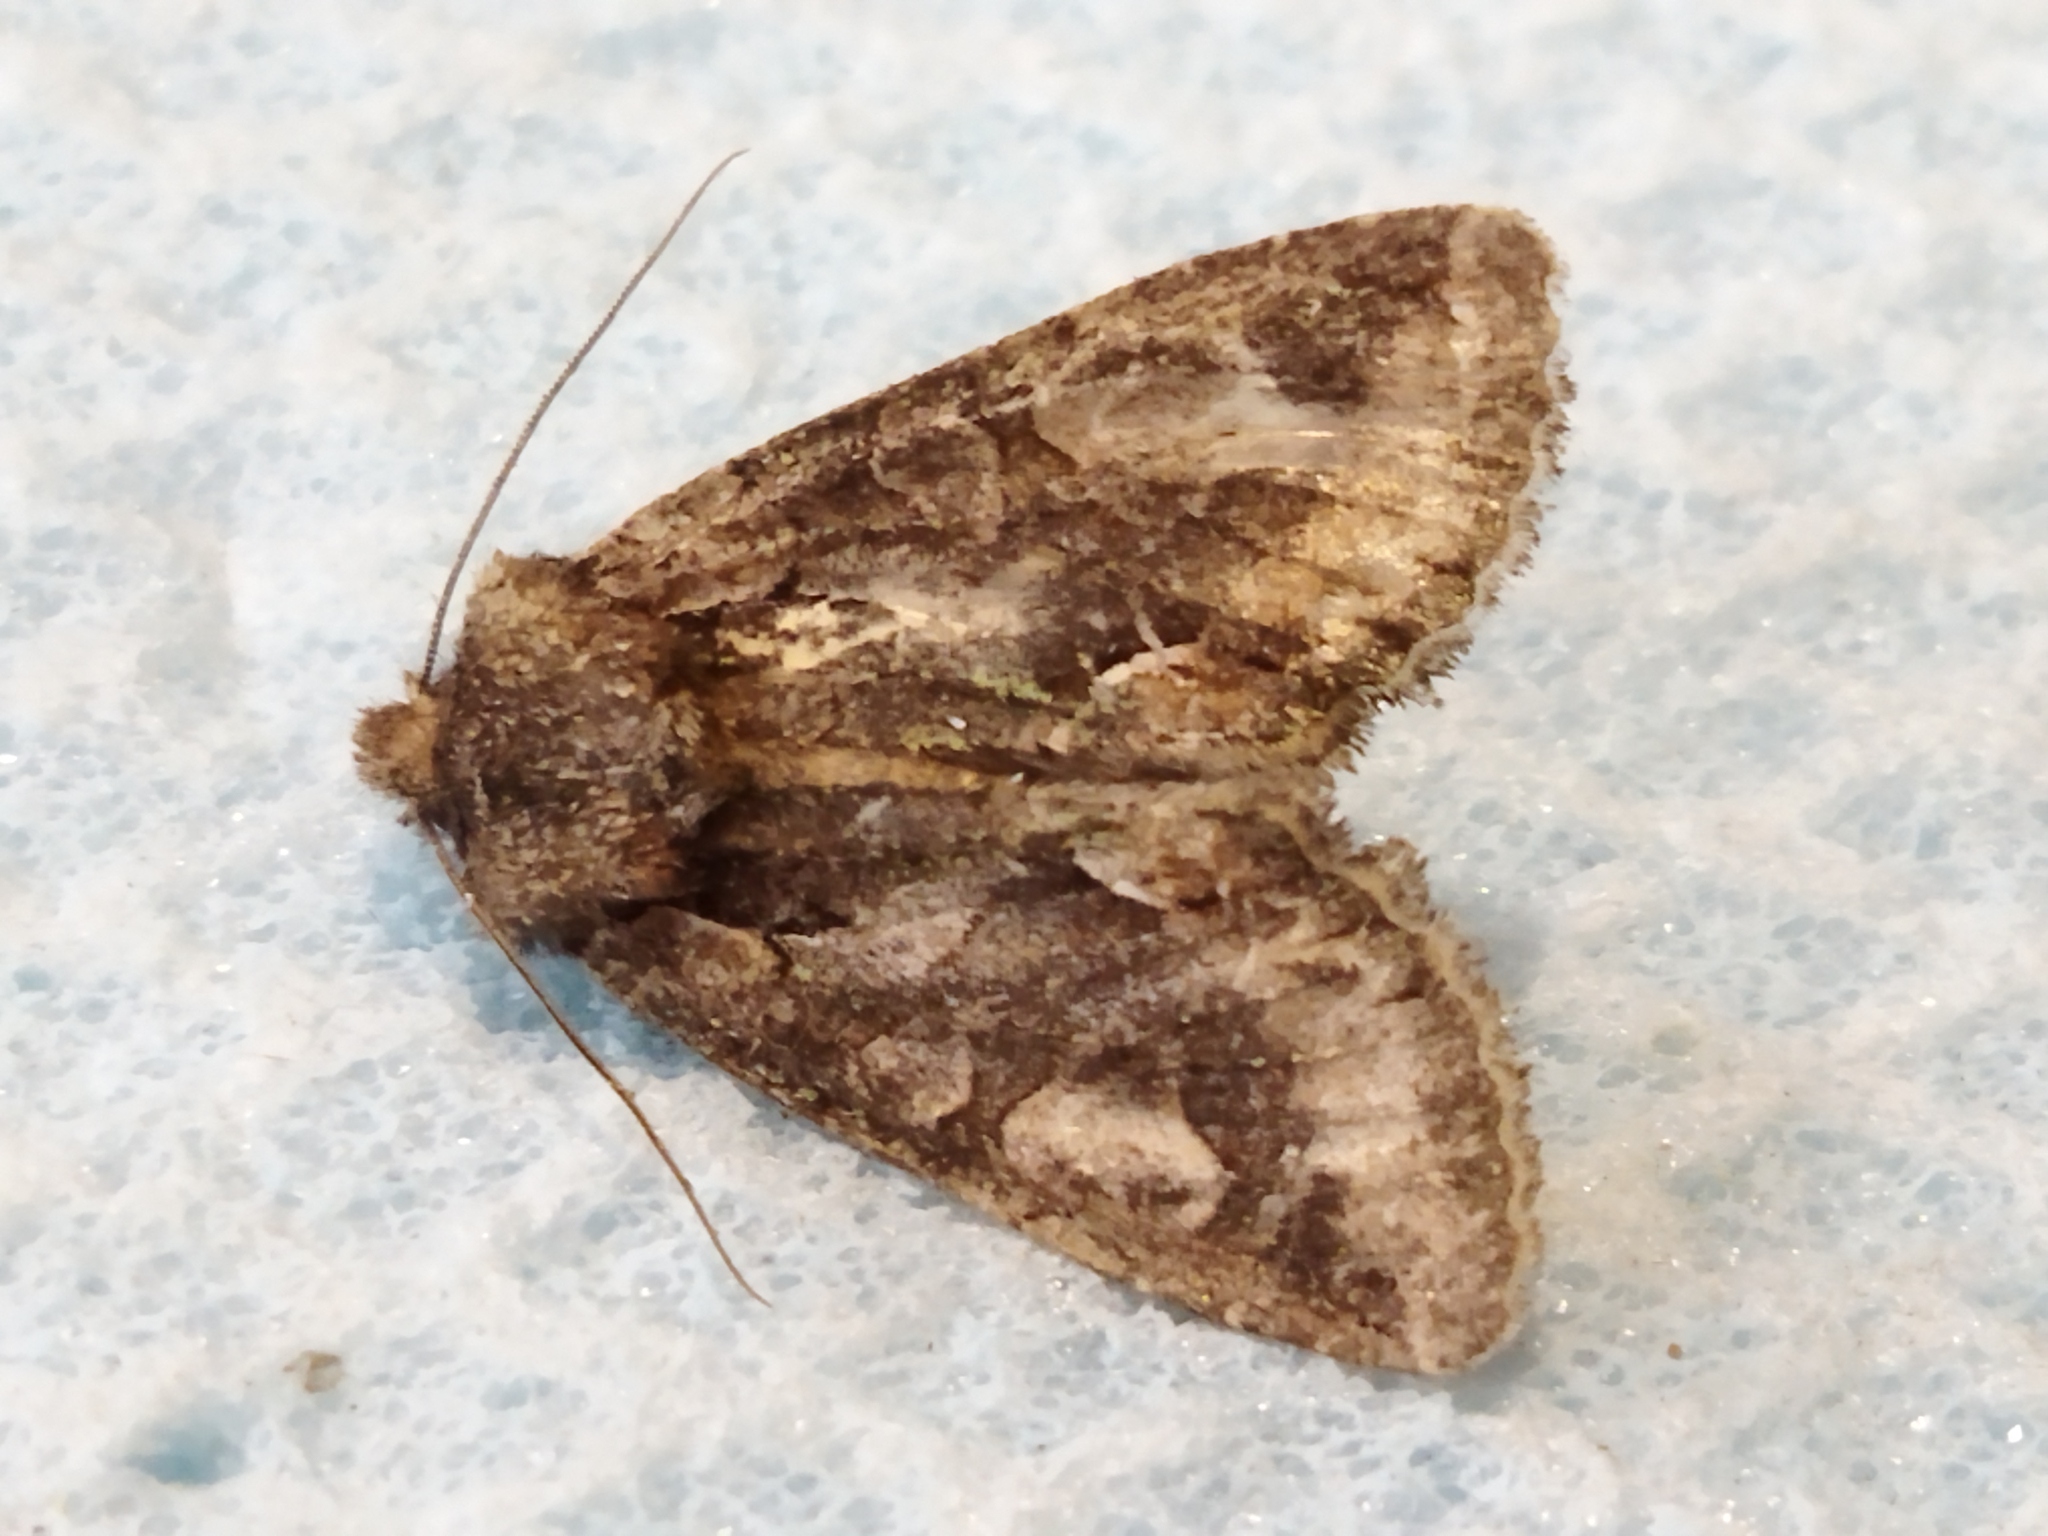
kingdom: Animalia
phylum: Arthropoda
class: Insecta
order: Lepidoptera
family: Noctuidae
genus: Allophyes
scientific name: Allophyes oxyacanthae
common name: Green-brindled crescent
